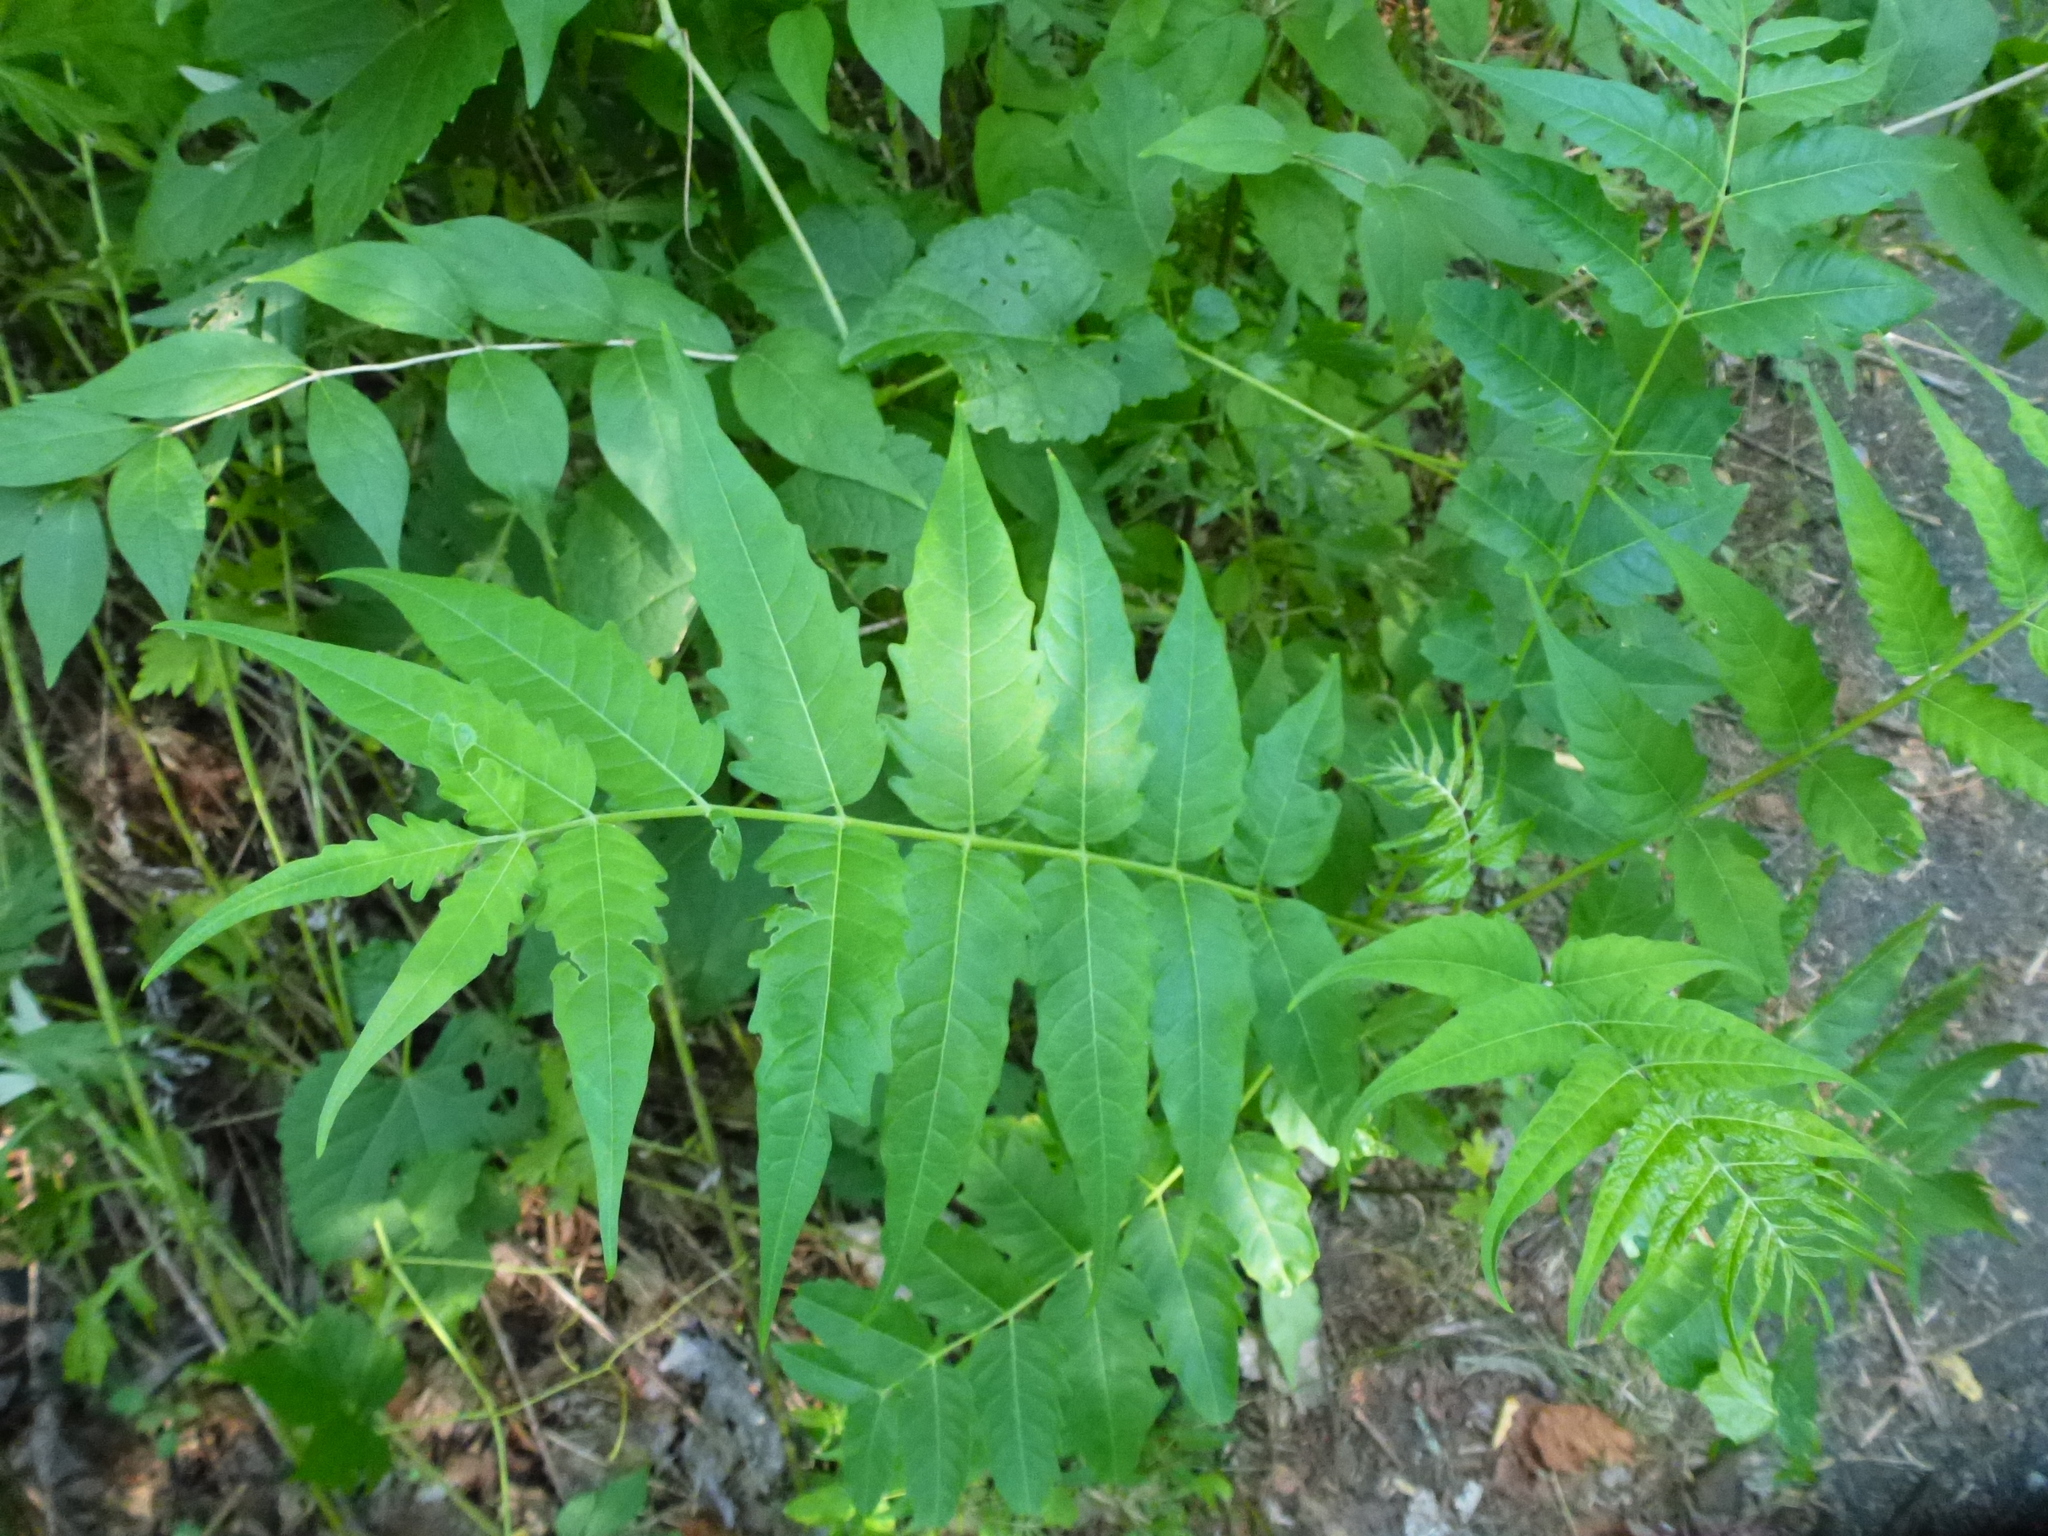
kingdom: Plantae
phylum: Tracheophyta
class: Magnoliopsida
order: Sapindales
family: Simaroubaceae
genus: Ailanthus
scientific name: Ailanthus altissima
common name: Tree-of-heaven
